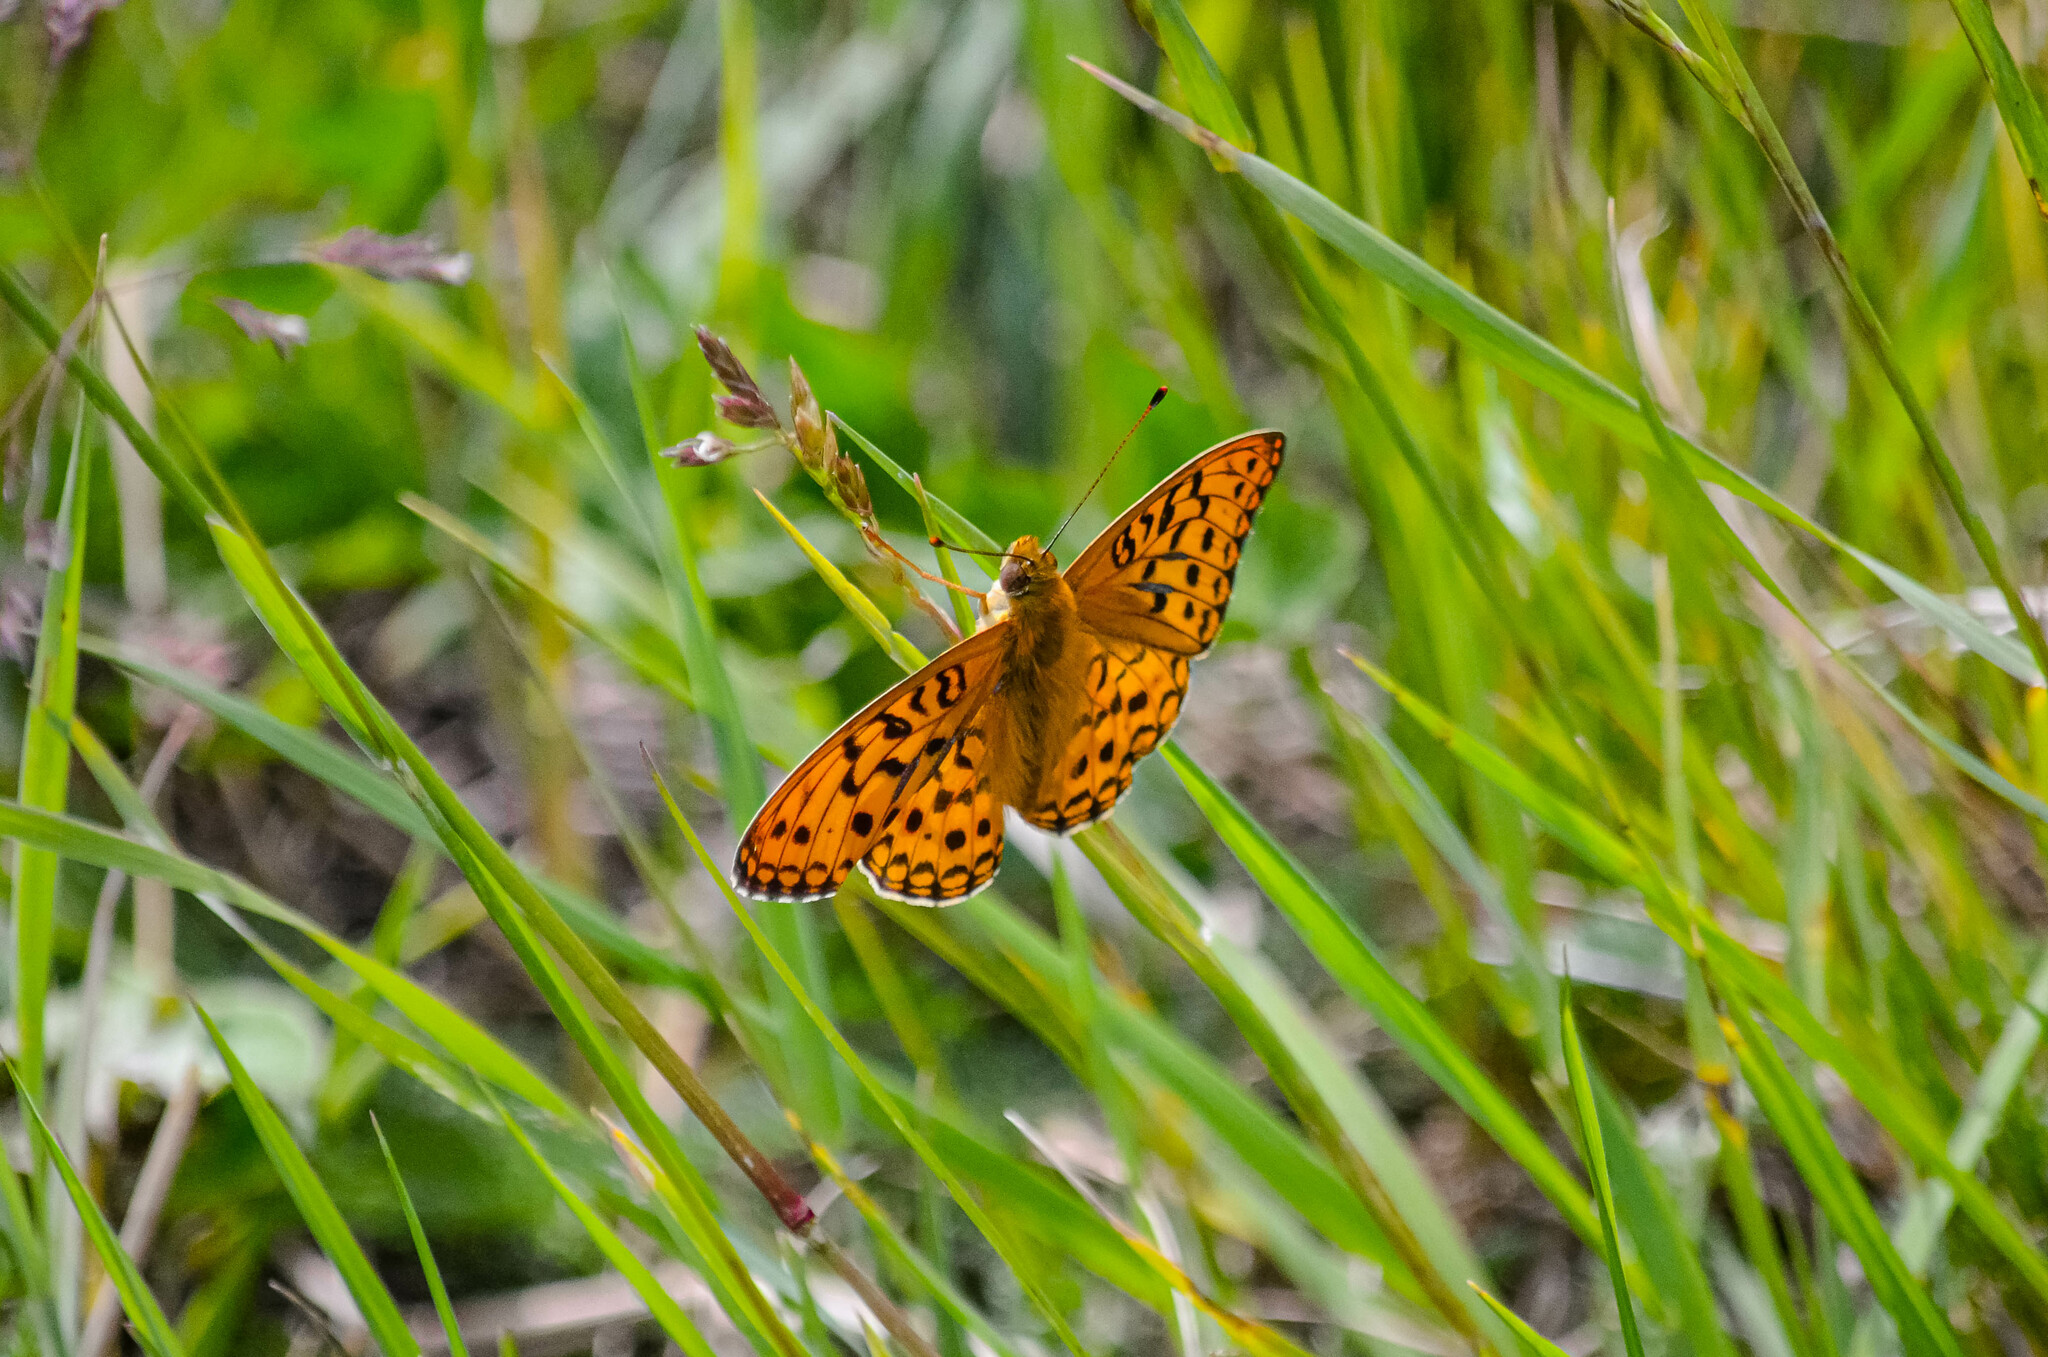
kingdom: Animalia
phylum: Arthropoda
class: Insecta
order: Lepidoptera
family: Nymphalidae
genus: Fabriciana
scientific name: Fabriciana adippe
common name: High brown fritillary
